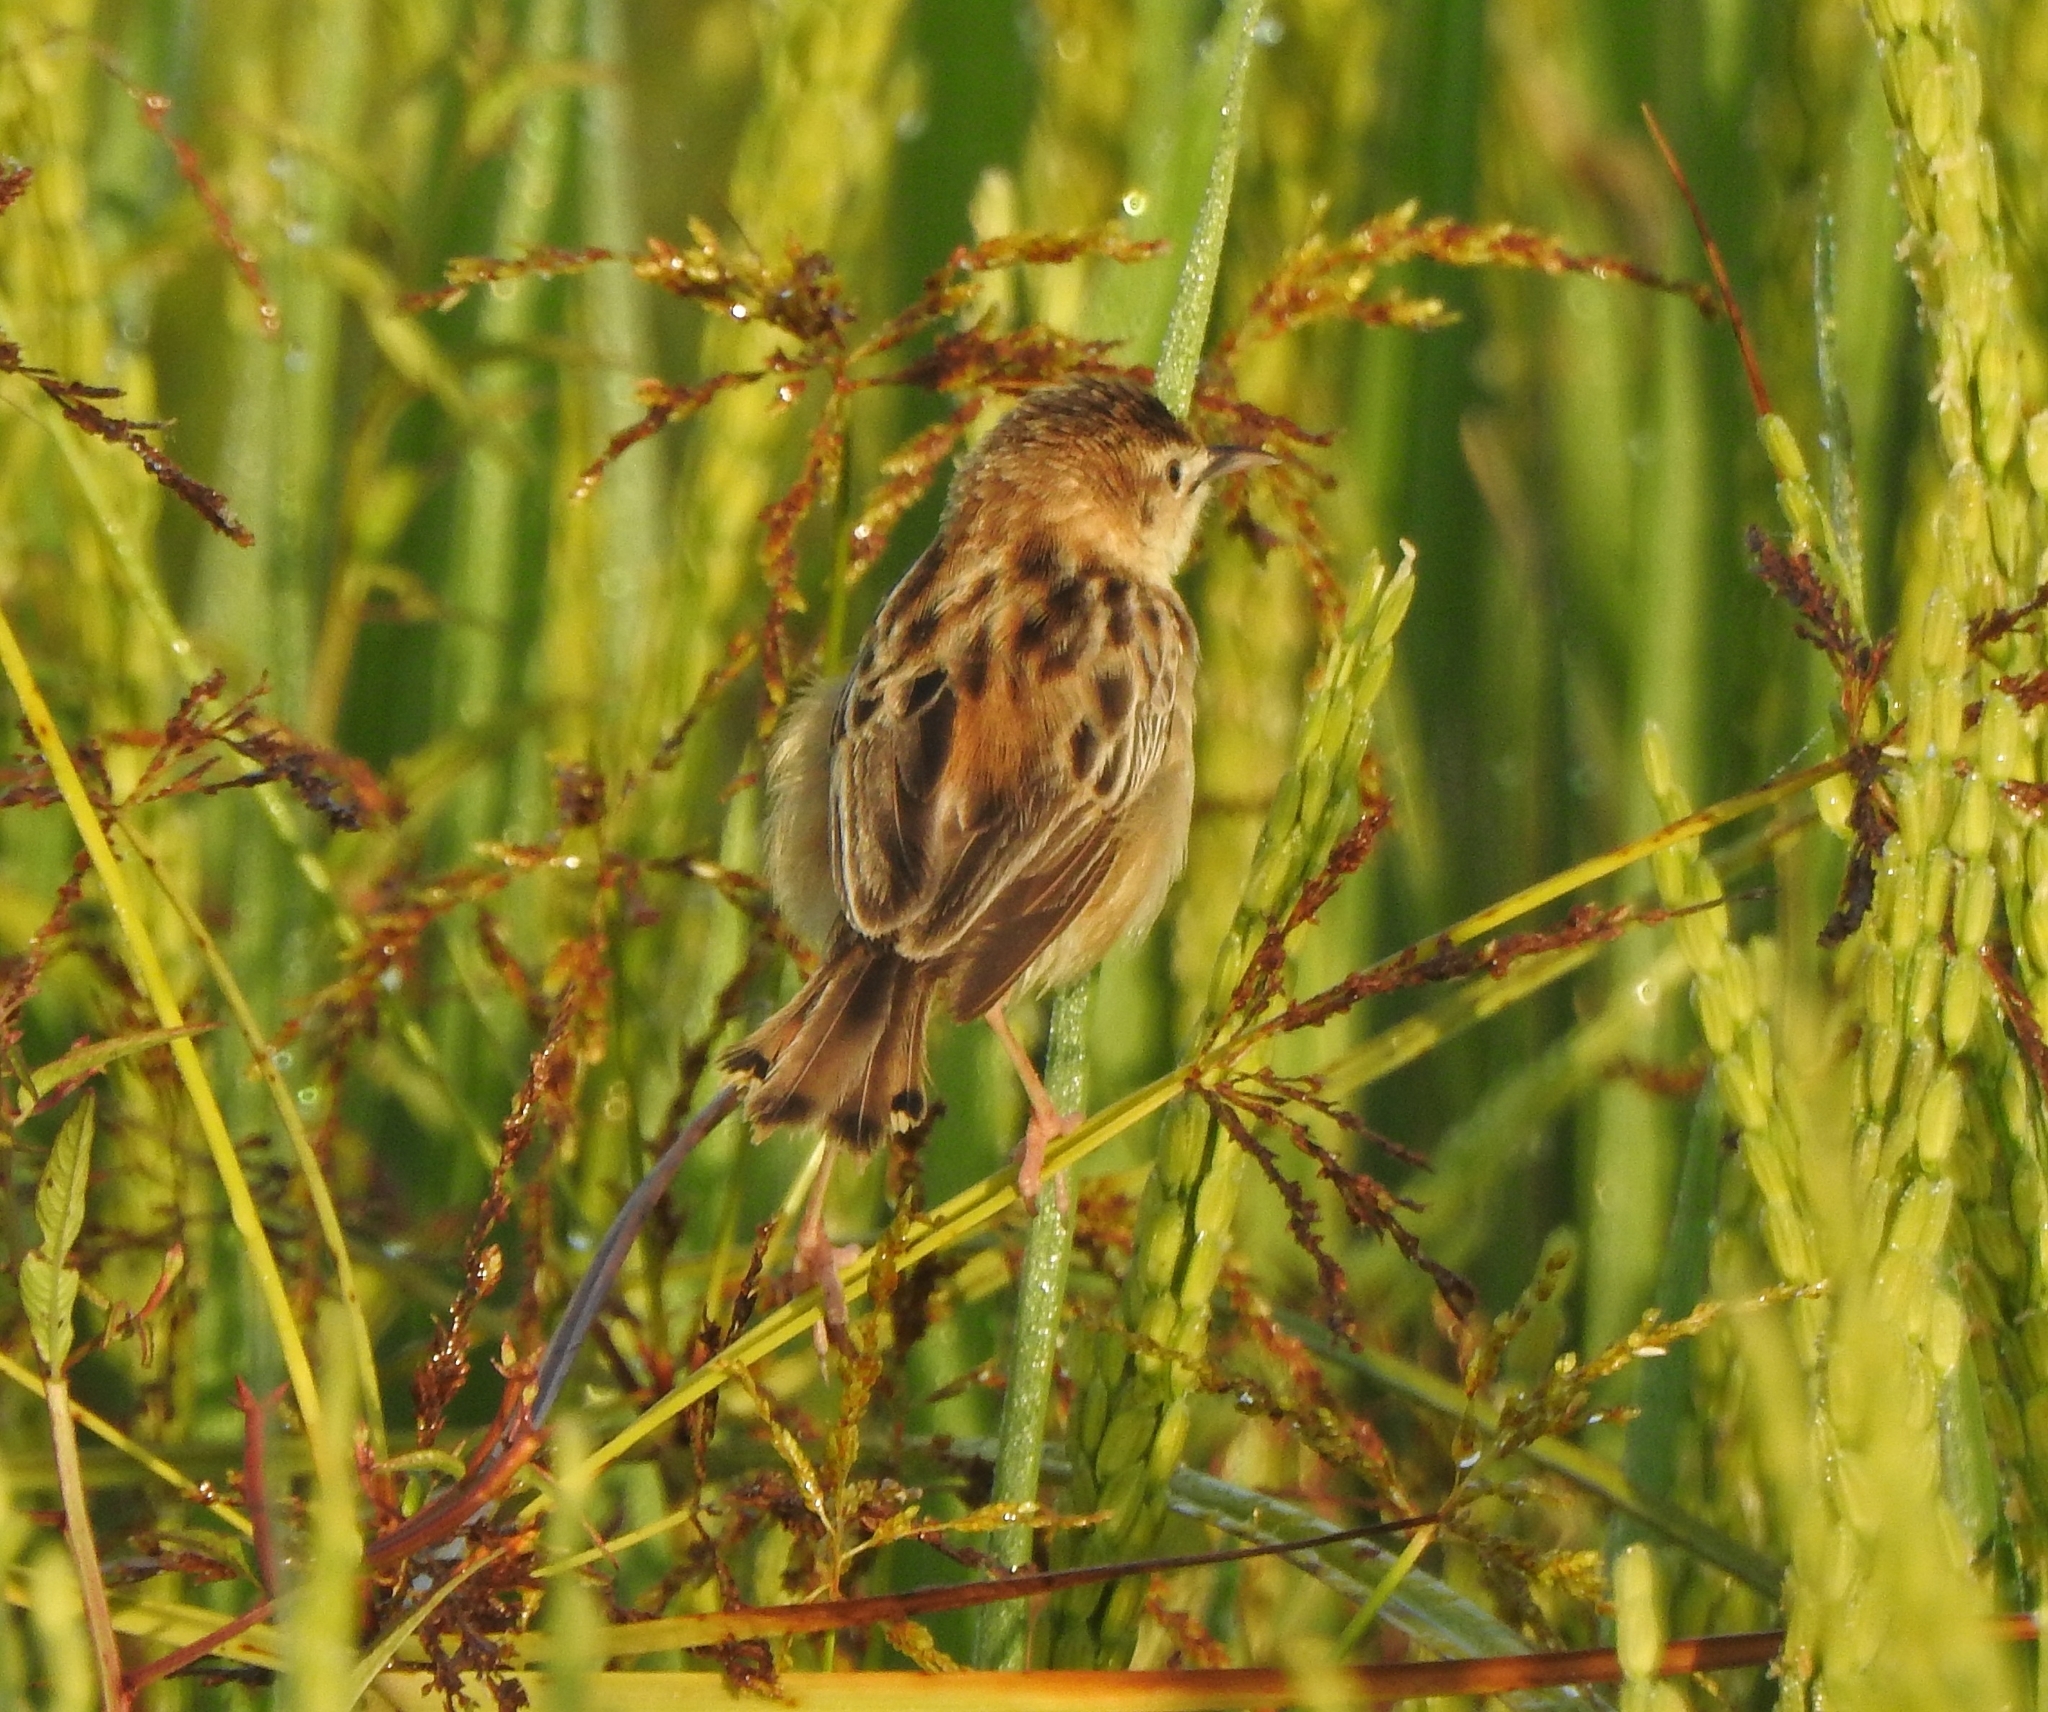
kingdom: Animalia
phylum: Chordata
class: Aves
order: Passeriformes
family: Cisticolidae
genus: Cisticola
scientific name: Cisticola juncidis
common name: Zitting cisticola
